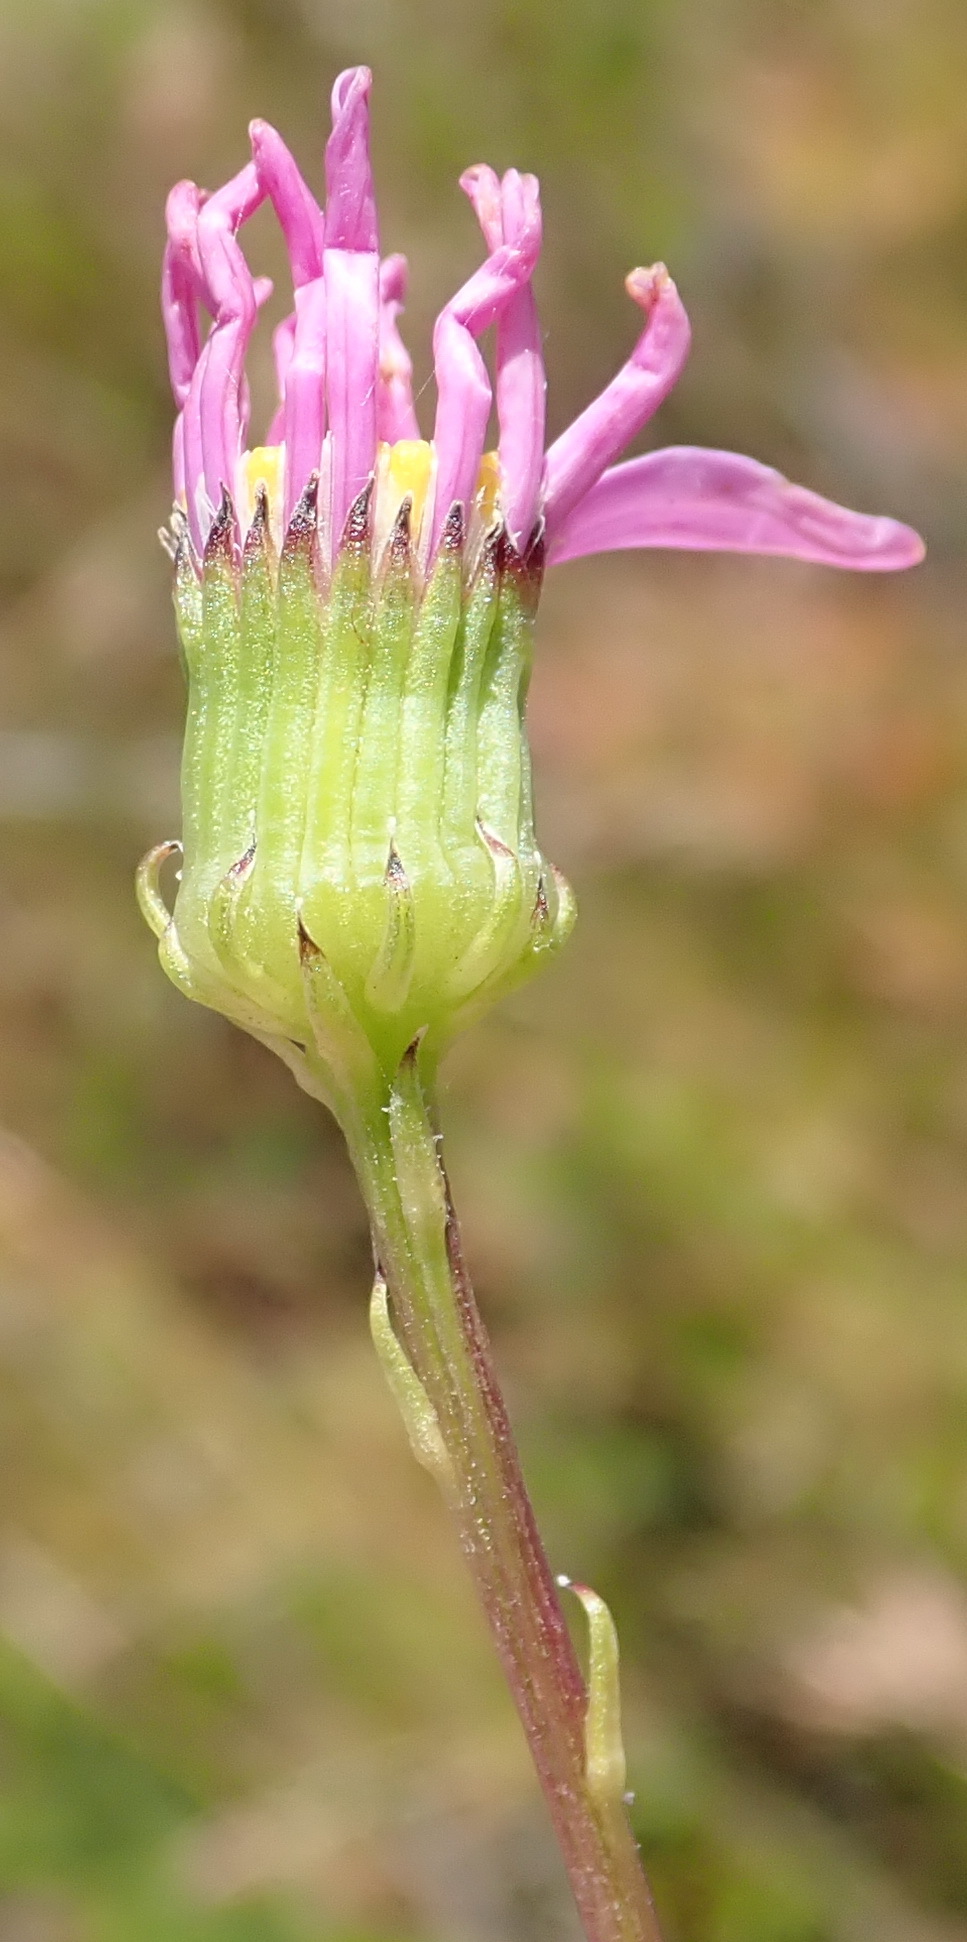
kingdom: Plantae
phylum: Tracheophyta
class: Magnoliopsida
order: Asterales
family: Asteraceae
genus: Senecio
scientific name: Senecio glastifolius
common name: Woad-leaved ragwort
